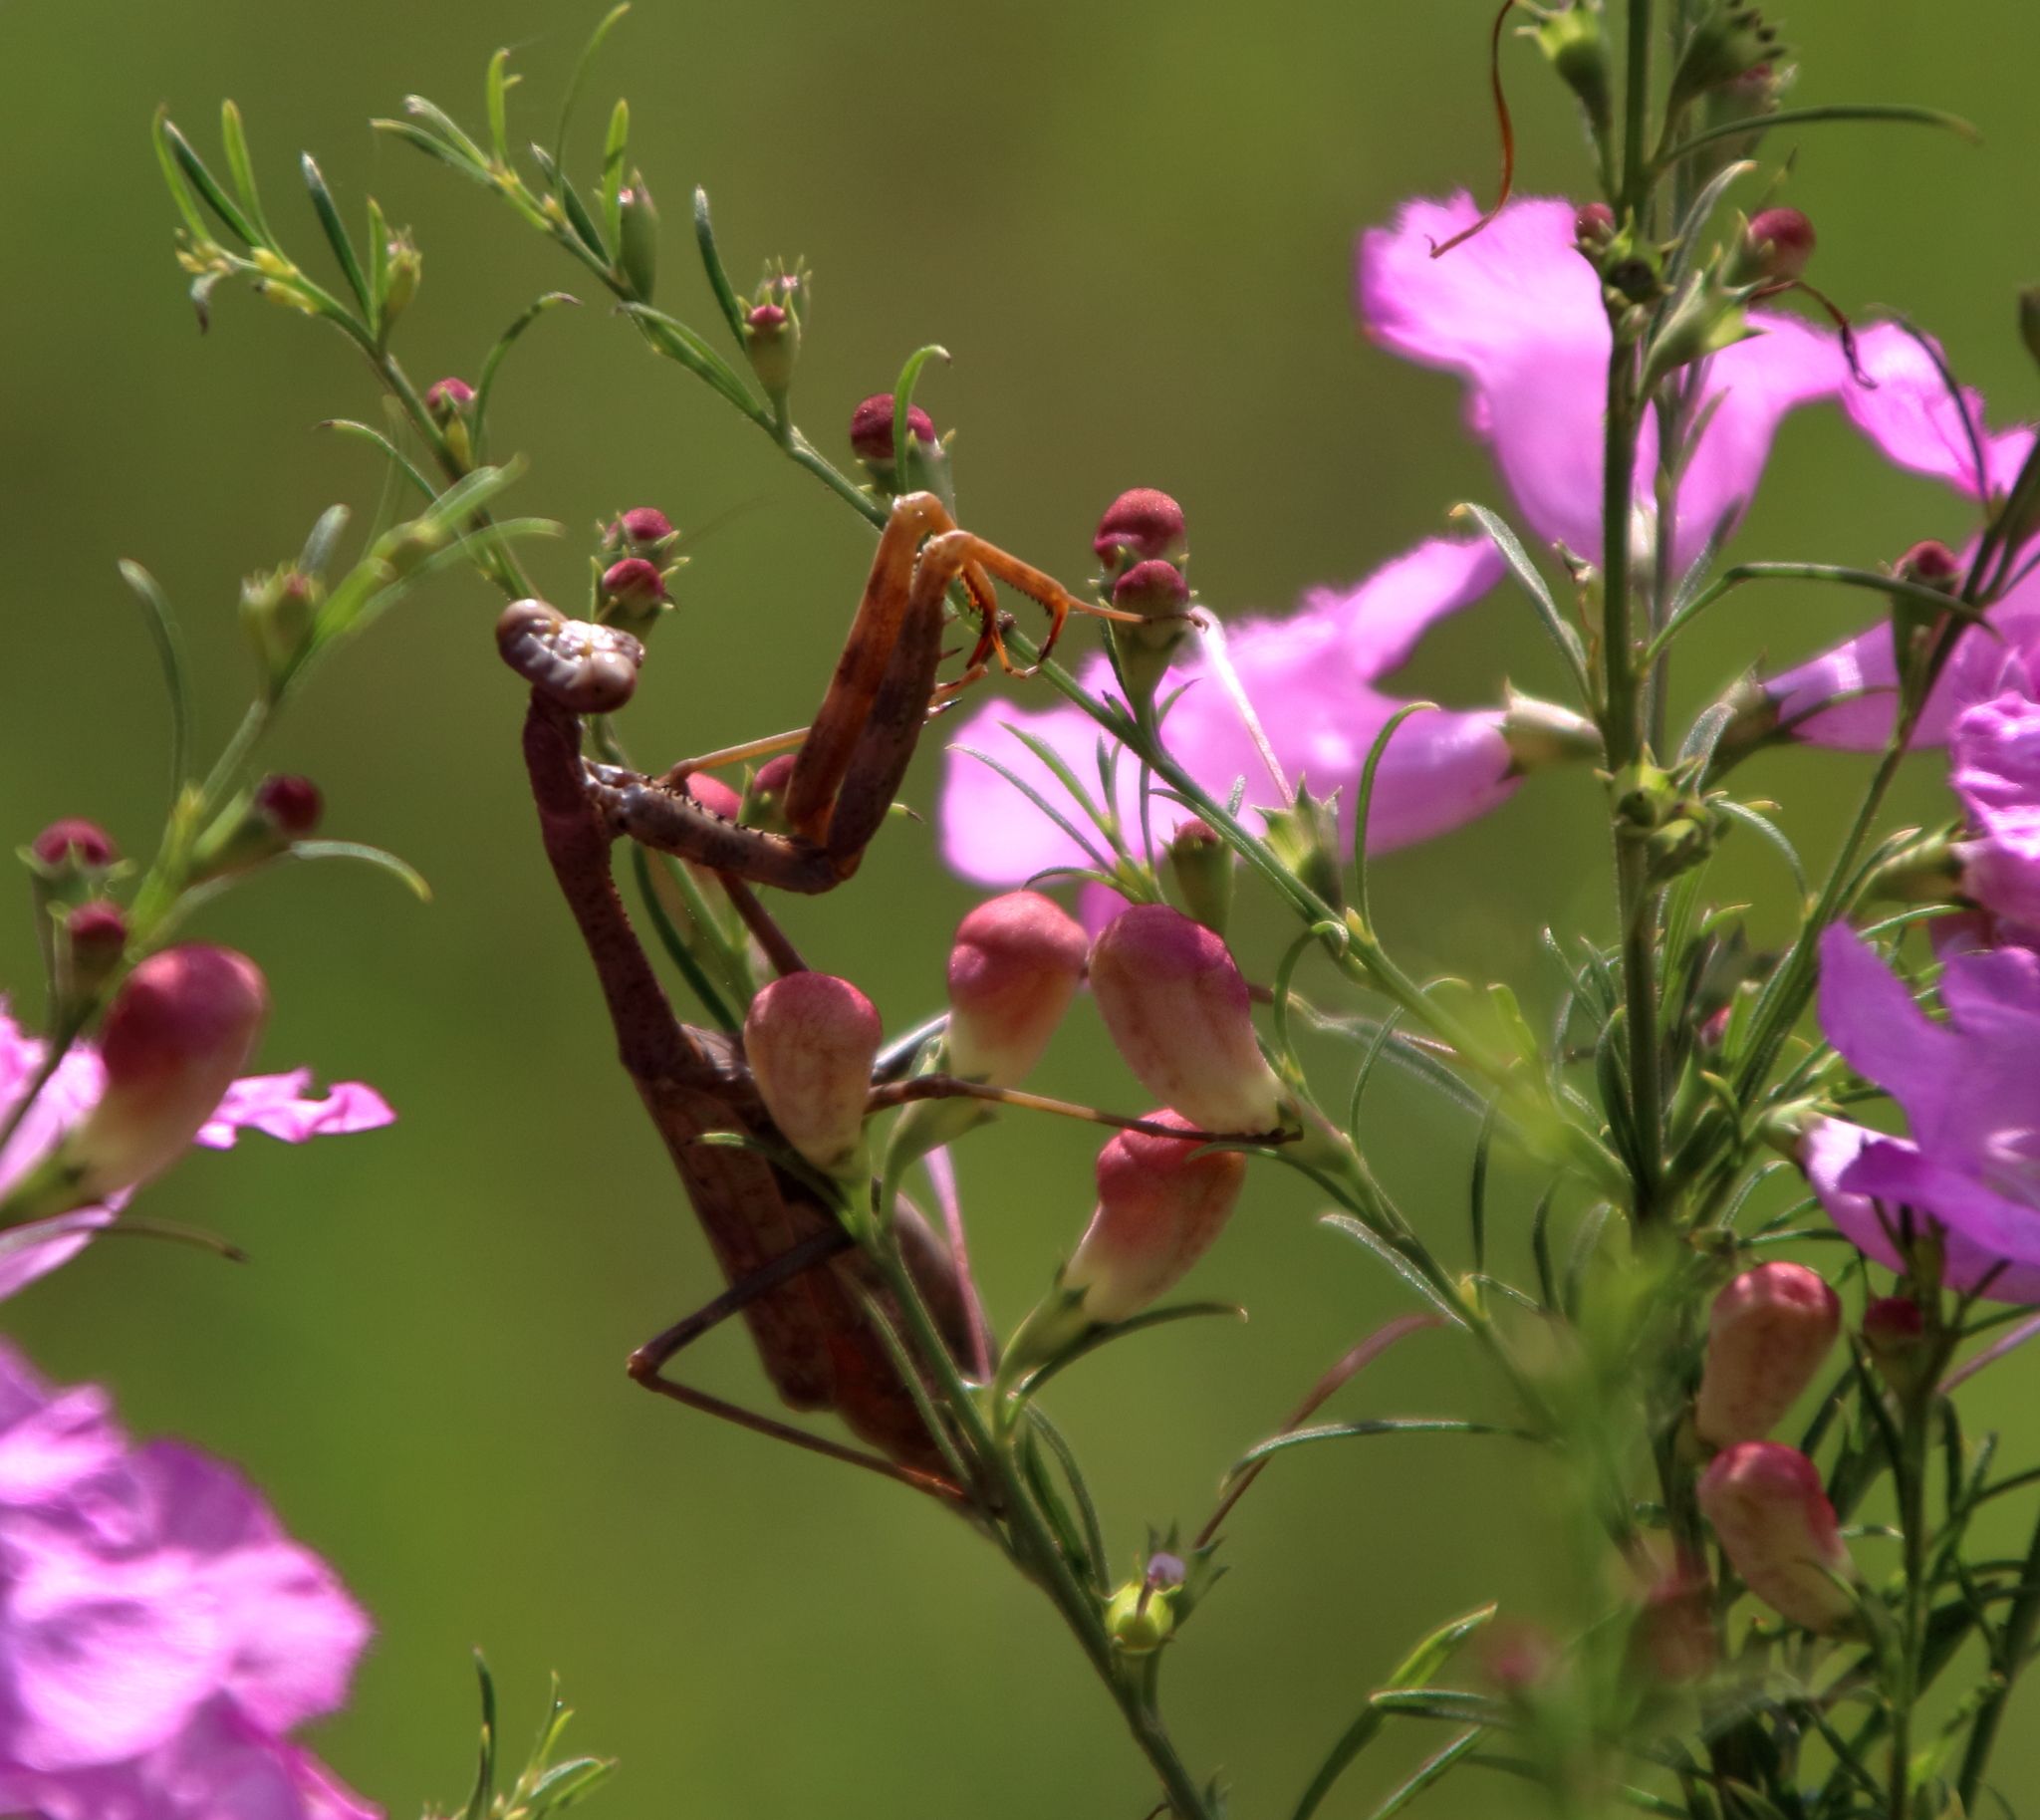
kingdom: Animalia
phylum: Arthropoda
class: Insecta
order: Mantodea
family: Mantidae
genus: Stagmomantis
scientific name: Stagmomantis carolina
